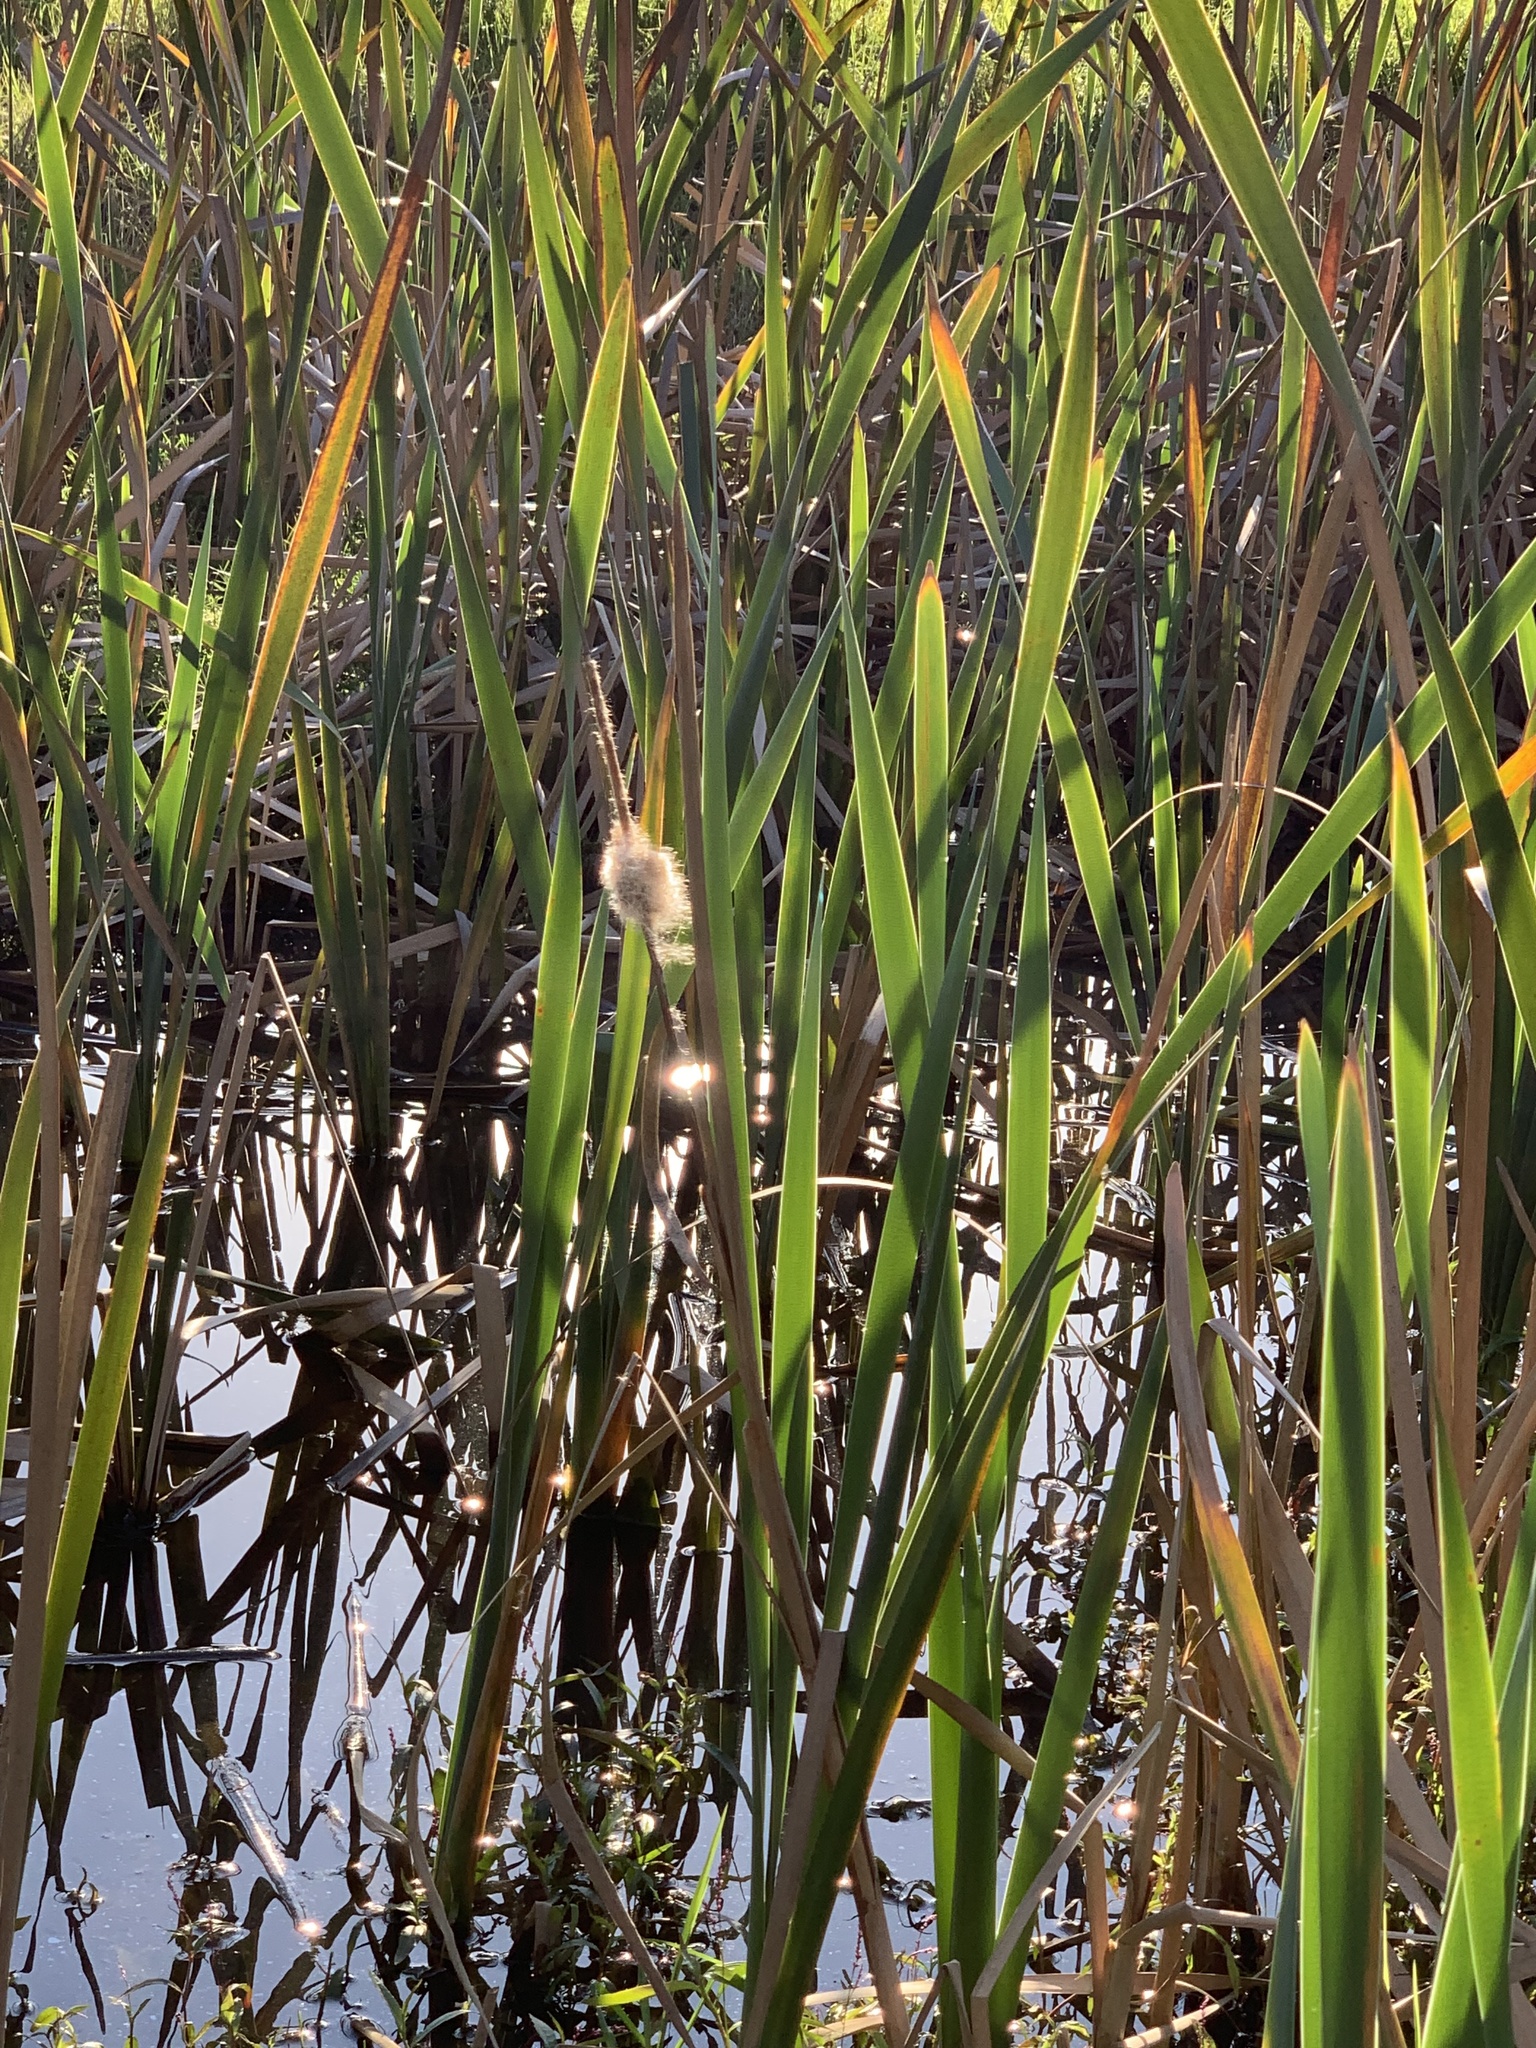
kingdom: Plantae
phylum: Tracheophyta
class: Liliopsida
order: Poales
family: Typhaceae
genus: Typha
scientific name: Typha capensis
